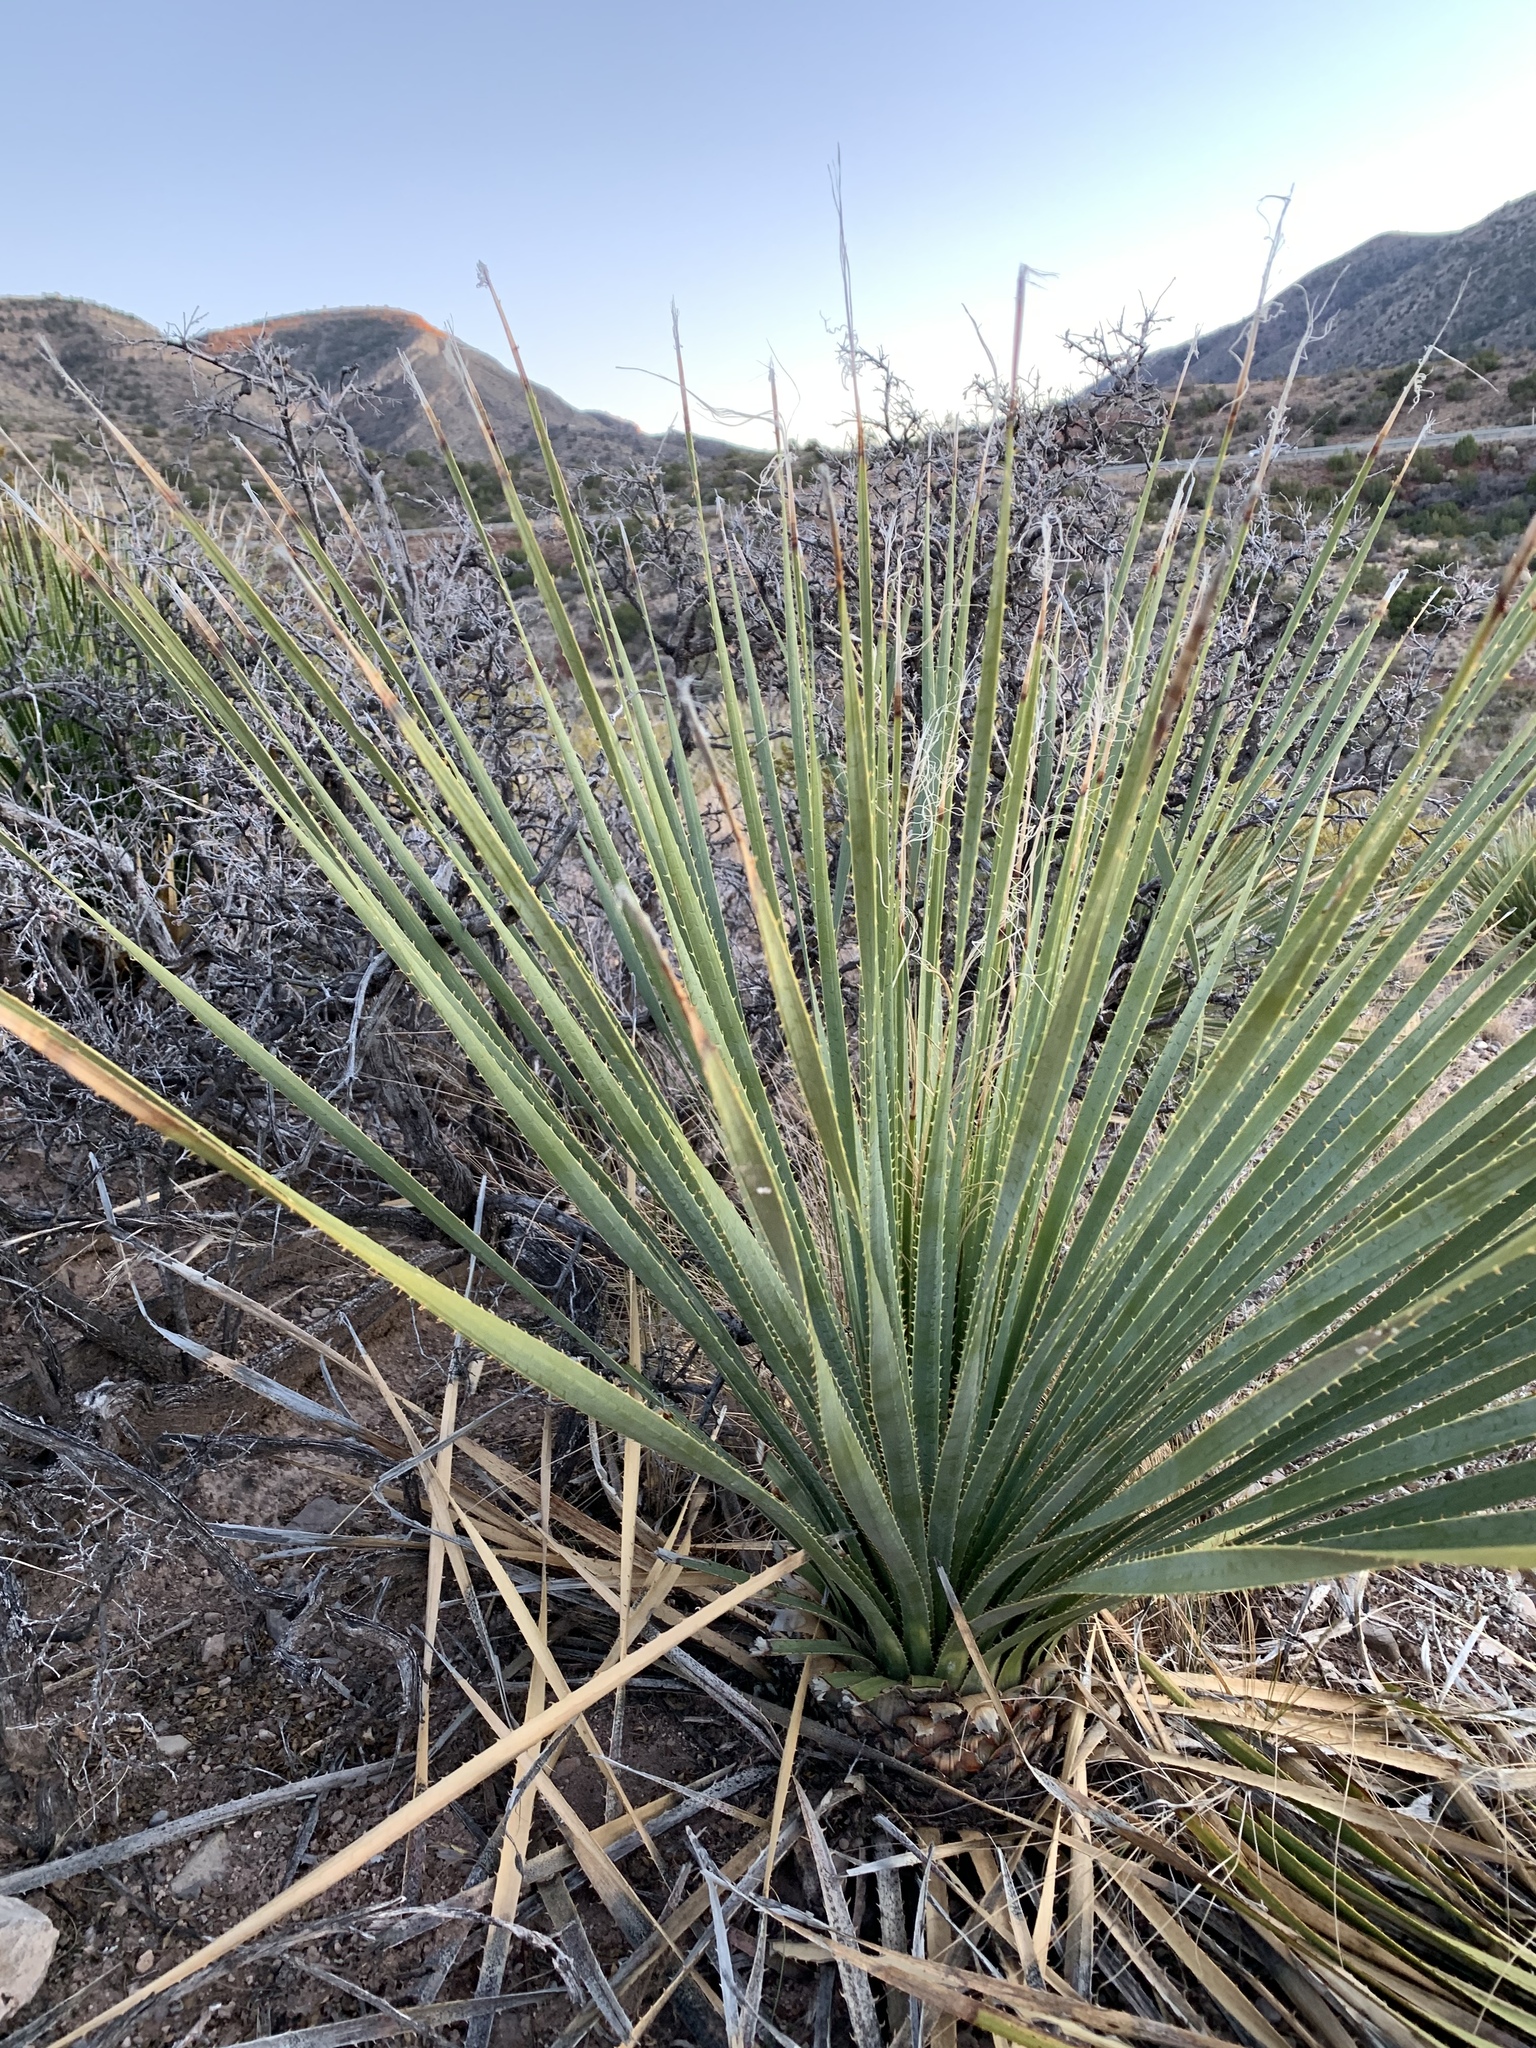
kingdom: Plantae
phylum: Tracheophyta
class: Liliopsida
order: Asparagales
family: Asparagaceae
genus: Dasylirion
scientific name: Dasylirion wheeleri
